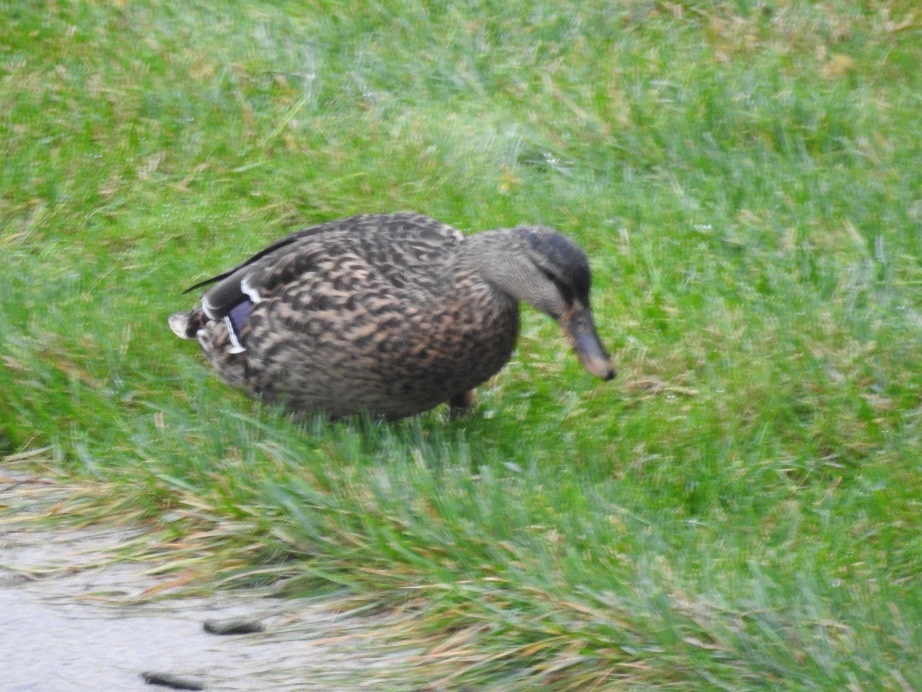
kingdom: Animalia
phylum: Chordata
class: Aves
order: Anseriformes
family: Anatidae
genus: Anas
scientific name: Anas platyrhynchos
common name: Mallard
